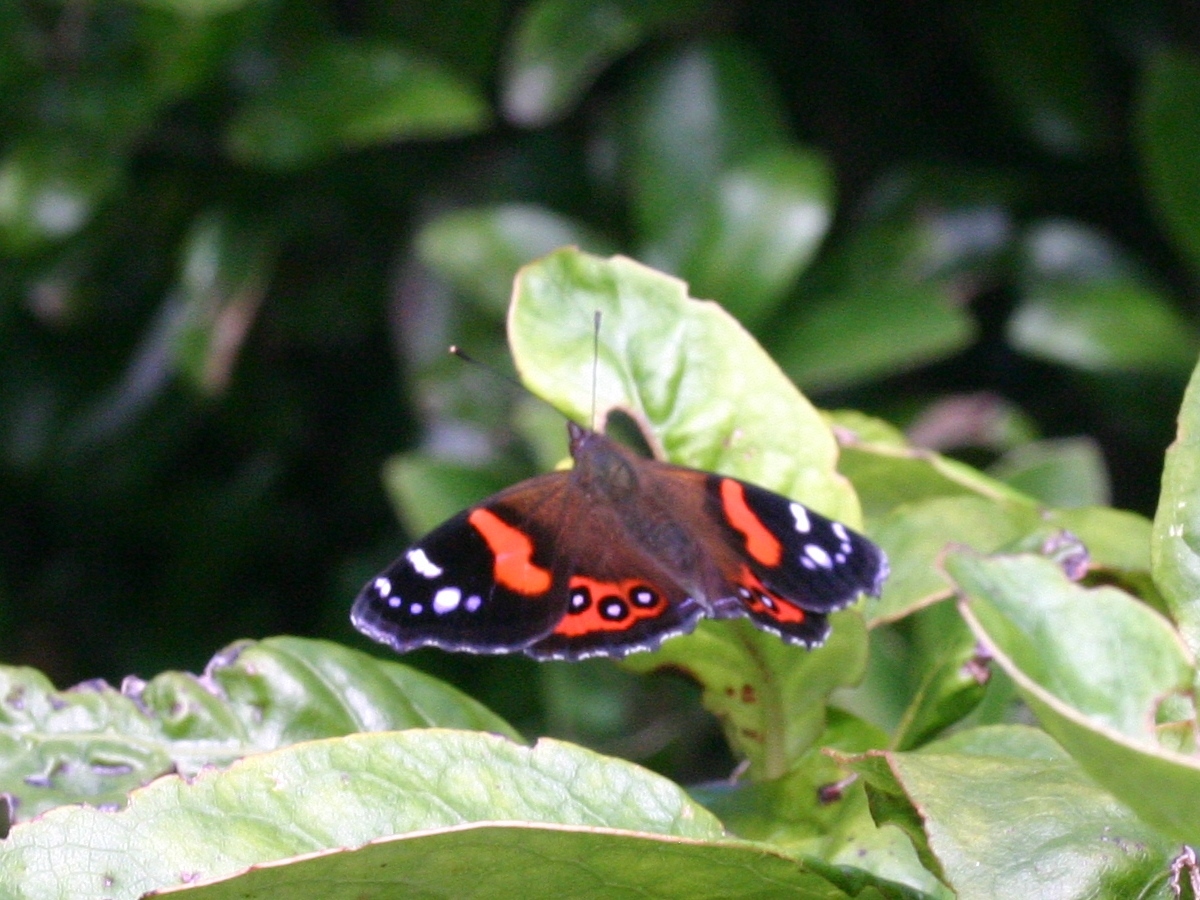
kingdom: Animalia
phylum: Arthropoda
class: Insecta
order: Lepidoptera
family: Nymphalidae
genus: Vanessa
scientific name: Vanessa gonerilla
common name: New zealand red admiral
